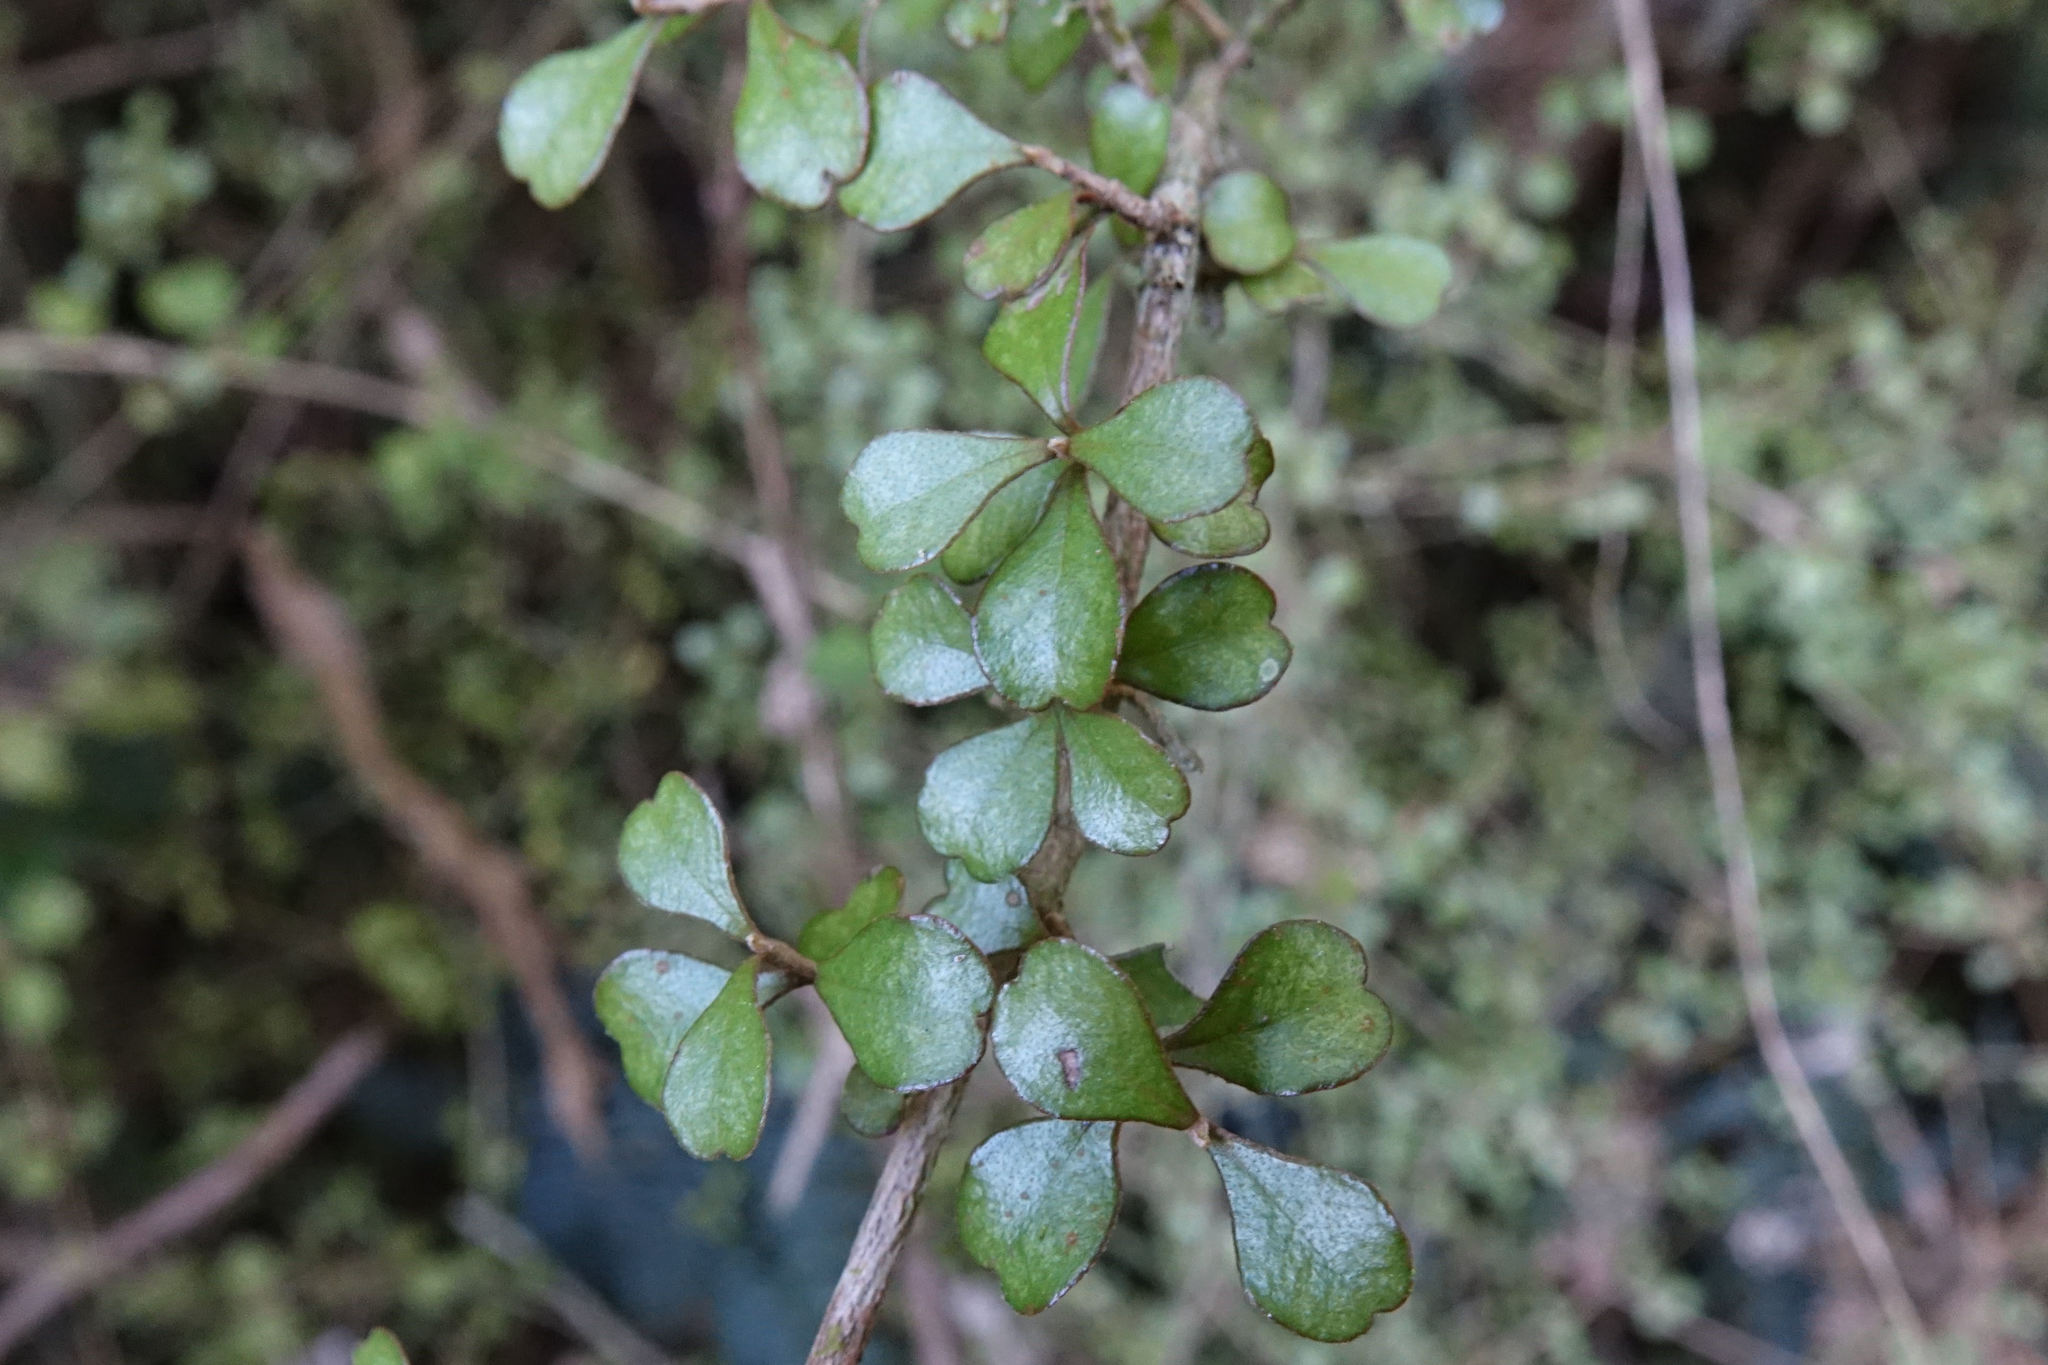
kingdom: Plantae
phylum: Tracheophyta
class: Magnoliopsida
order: Myrtales
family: Myrtaceae
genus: Lophomyrtus
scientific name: Lophomyrtus obcordata
